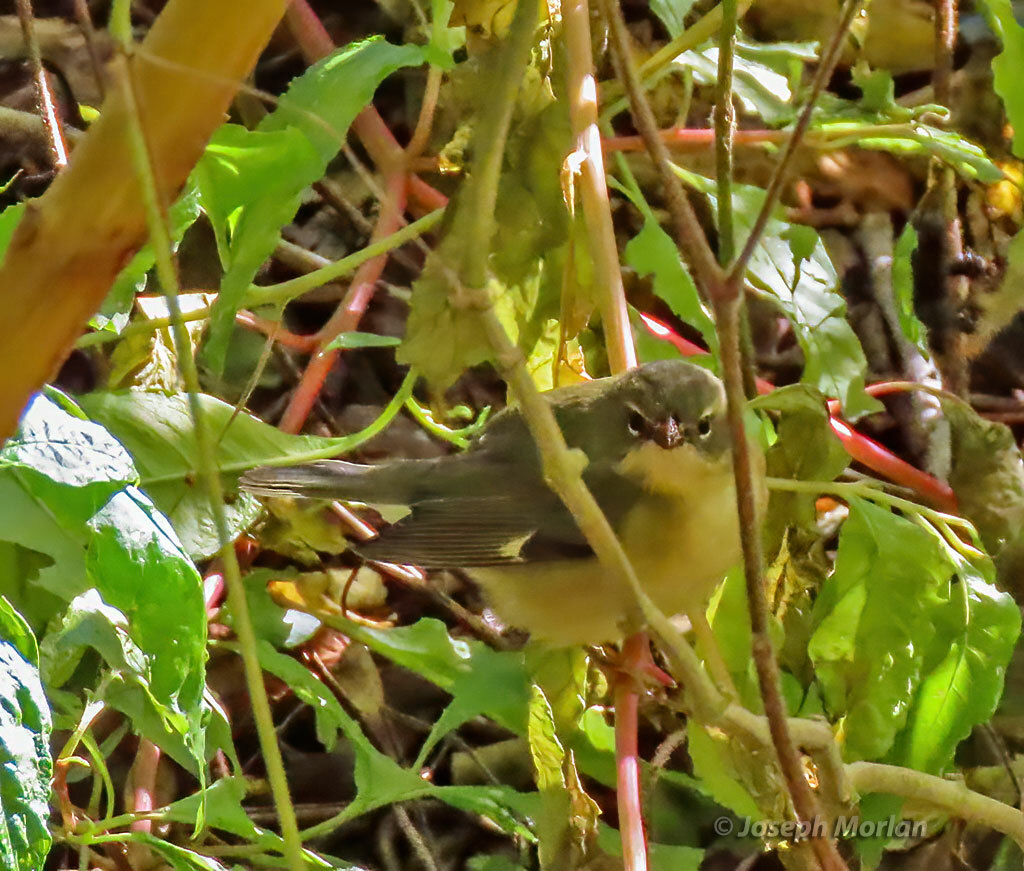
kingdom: Animalia
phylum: Chordata
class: Aves
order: Passeriformes
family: Parulidae
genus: Setophaga
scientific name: Setophaga caerulescens
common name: Black-throated blue warbler
